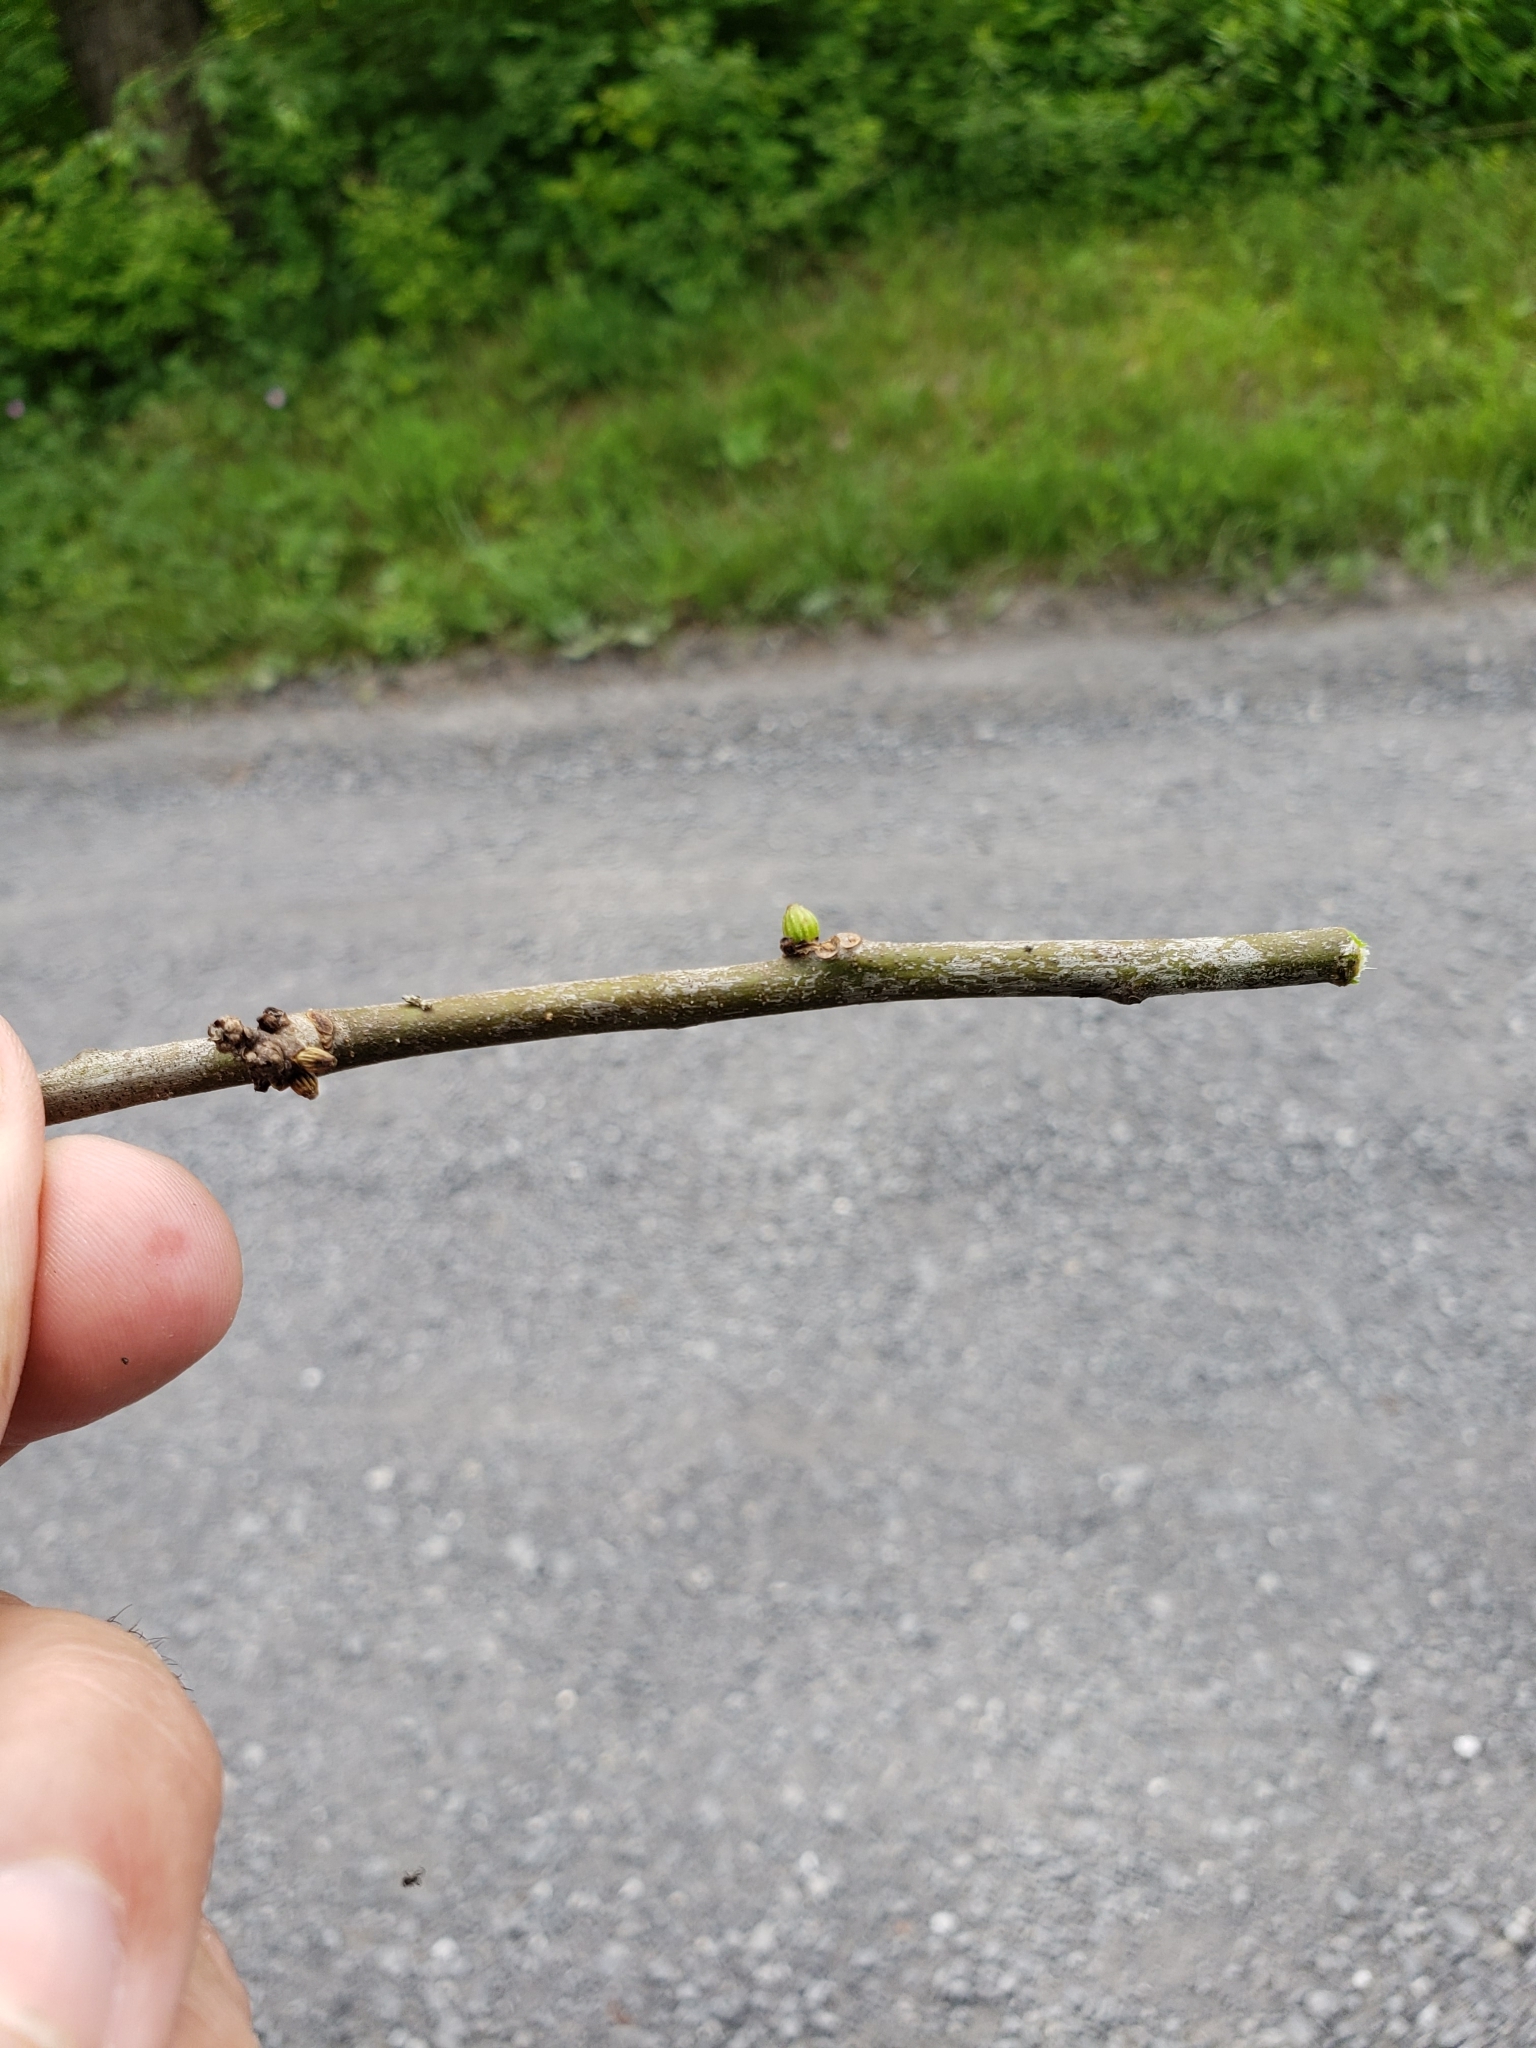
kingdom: Animalia
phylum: Arthropoda
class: Insecta
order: Hymenoptera
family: Cynipidae
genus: Callirhytis
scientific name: Callirhytis
